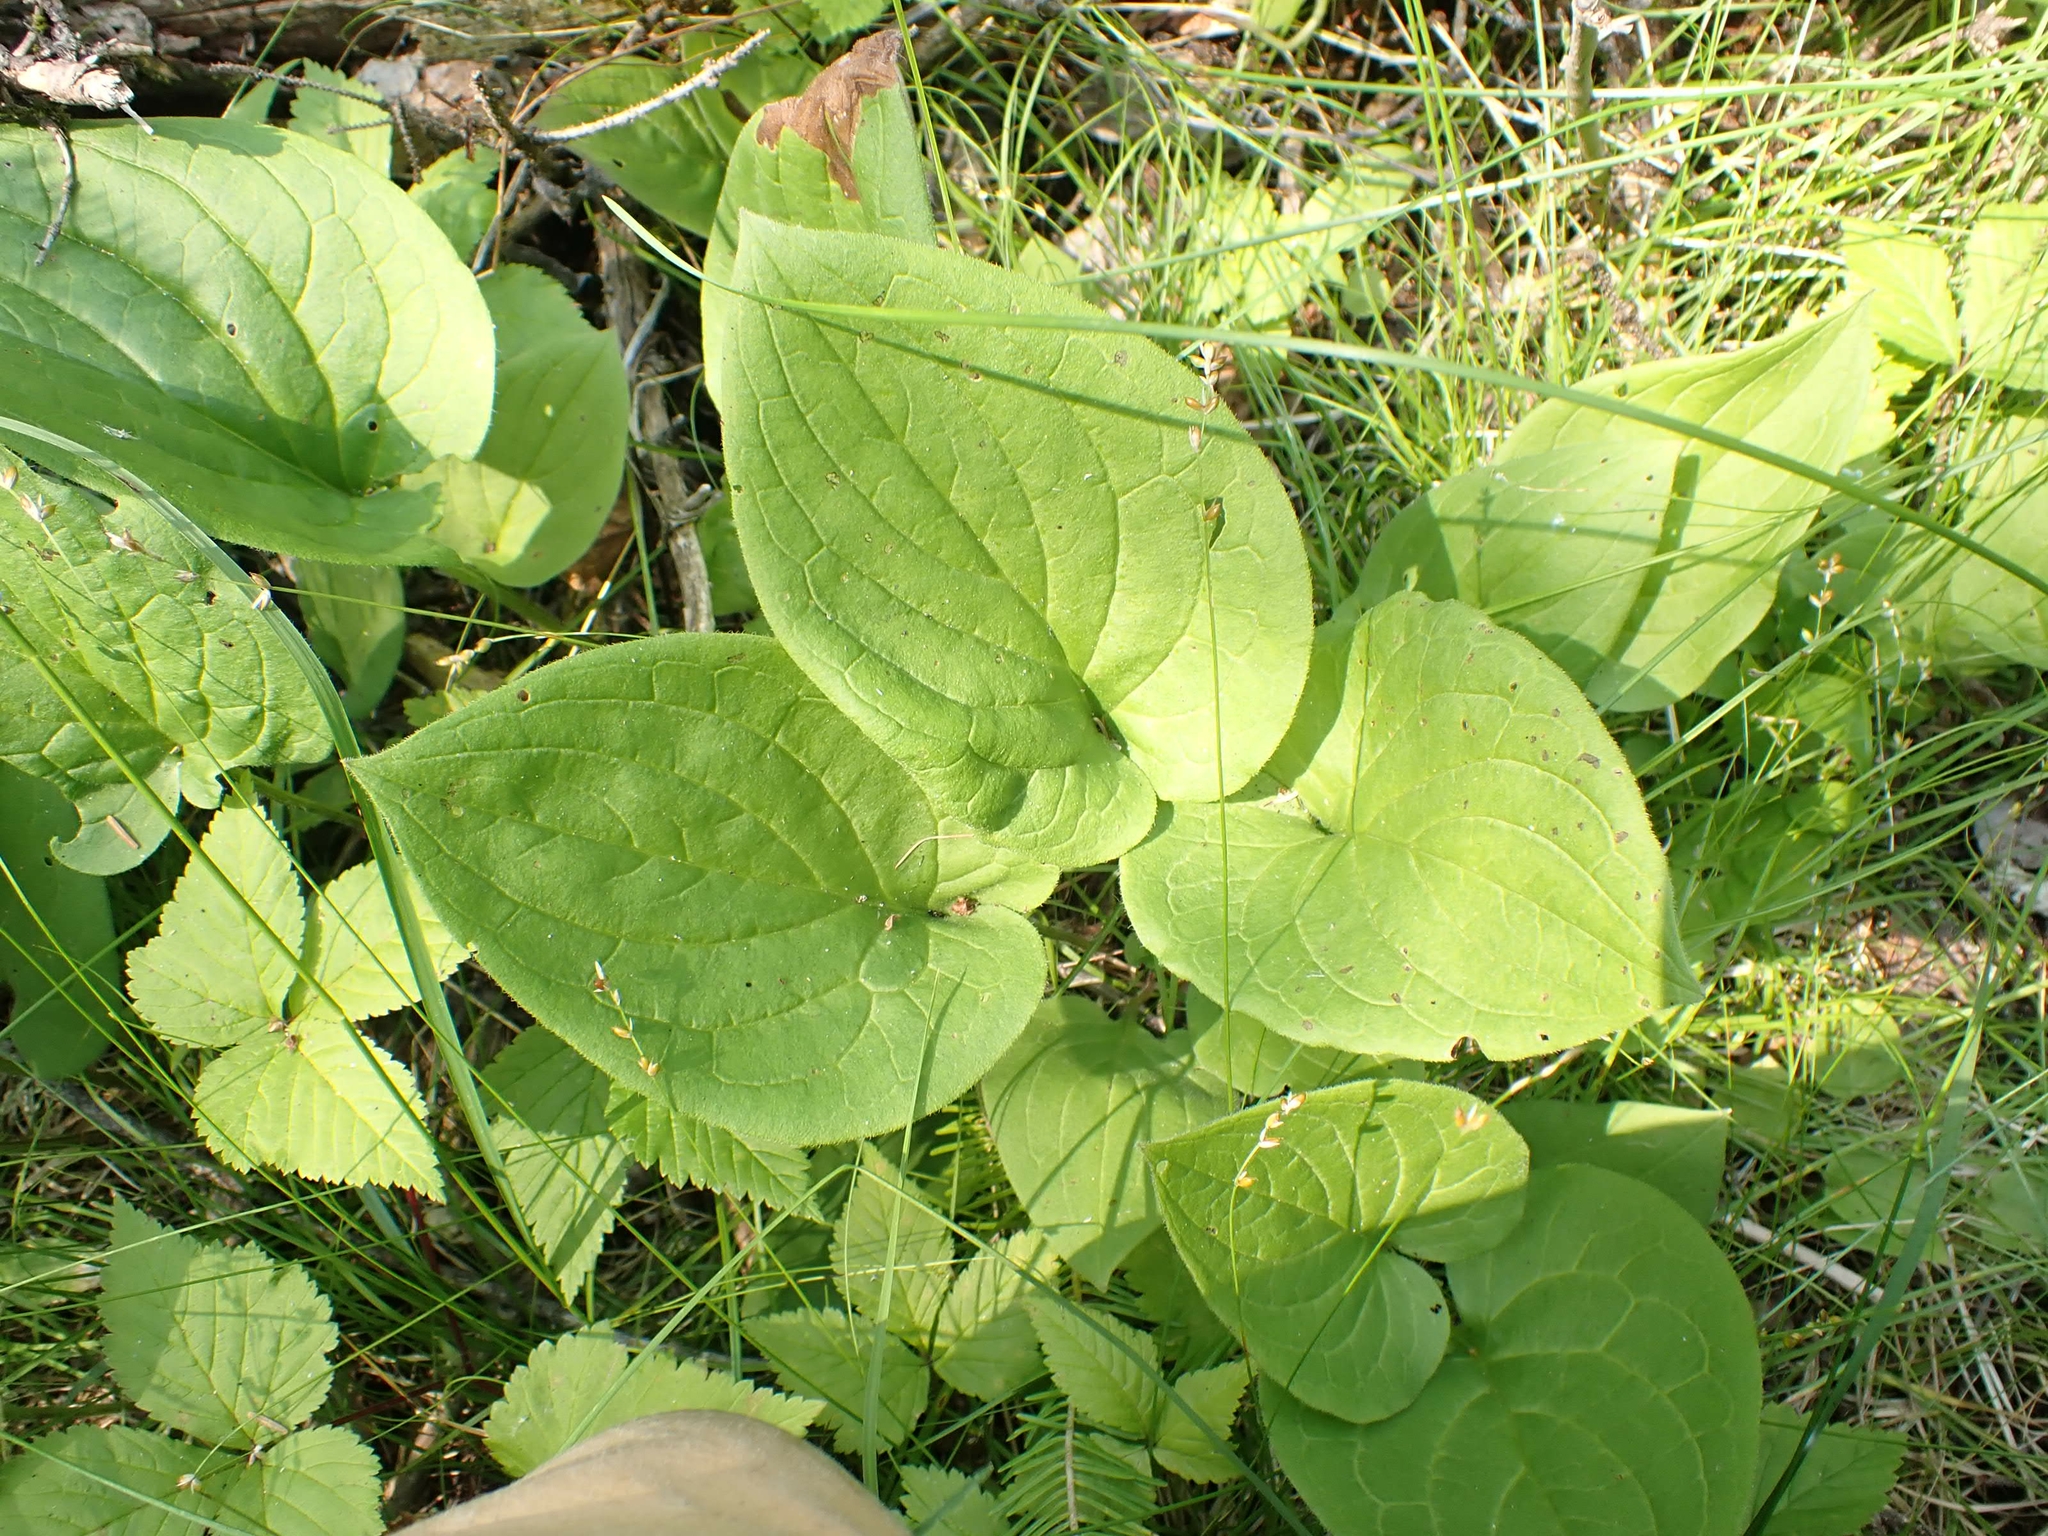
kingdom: Plantae
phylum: Tracheophyta
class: Magnoliopsida
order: Boraginales
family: Boraginaceae
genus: Mertensia
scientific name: Mertensia paniculata
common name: Panicled bluebells
